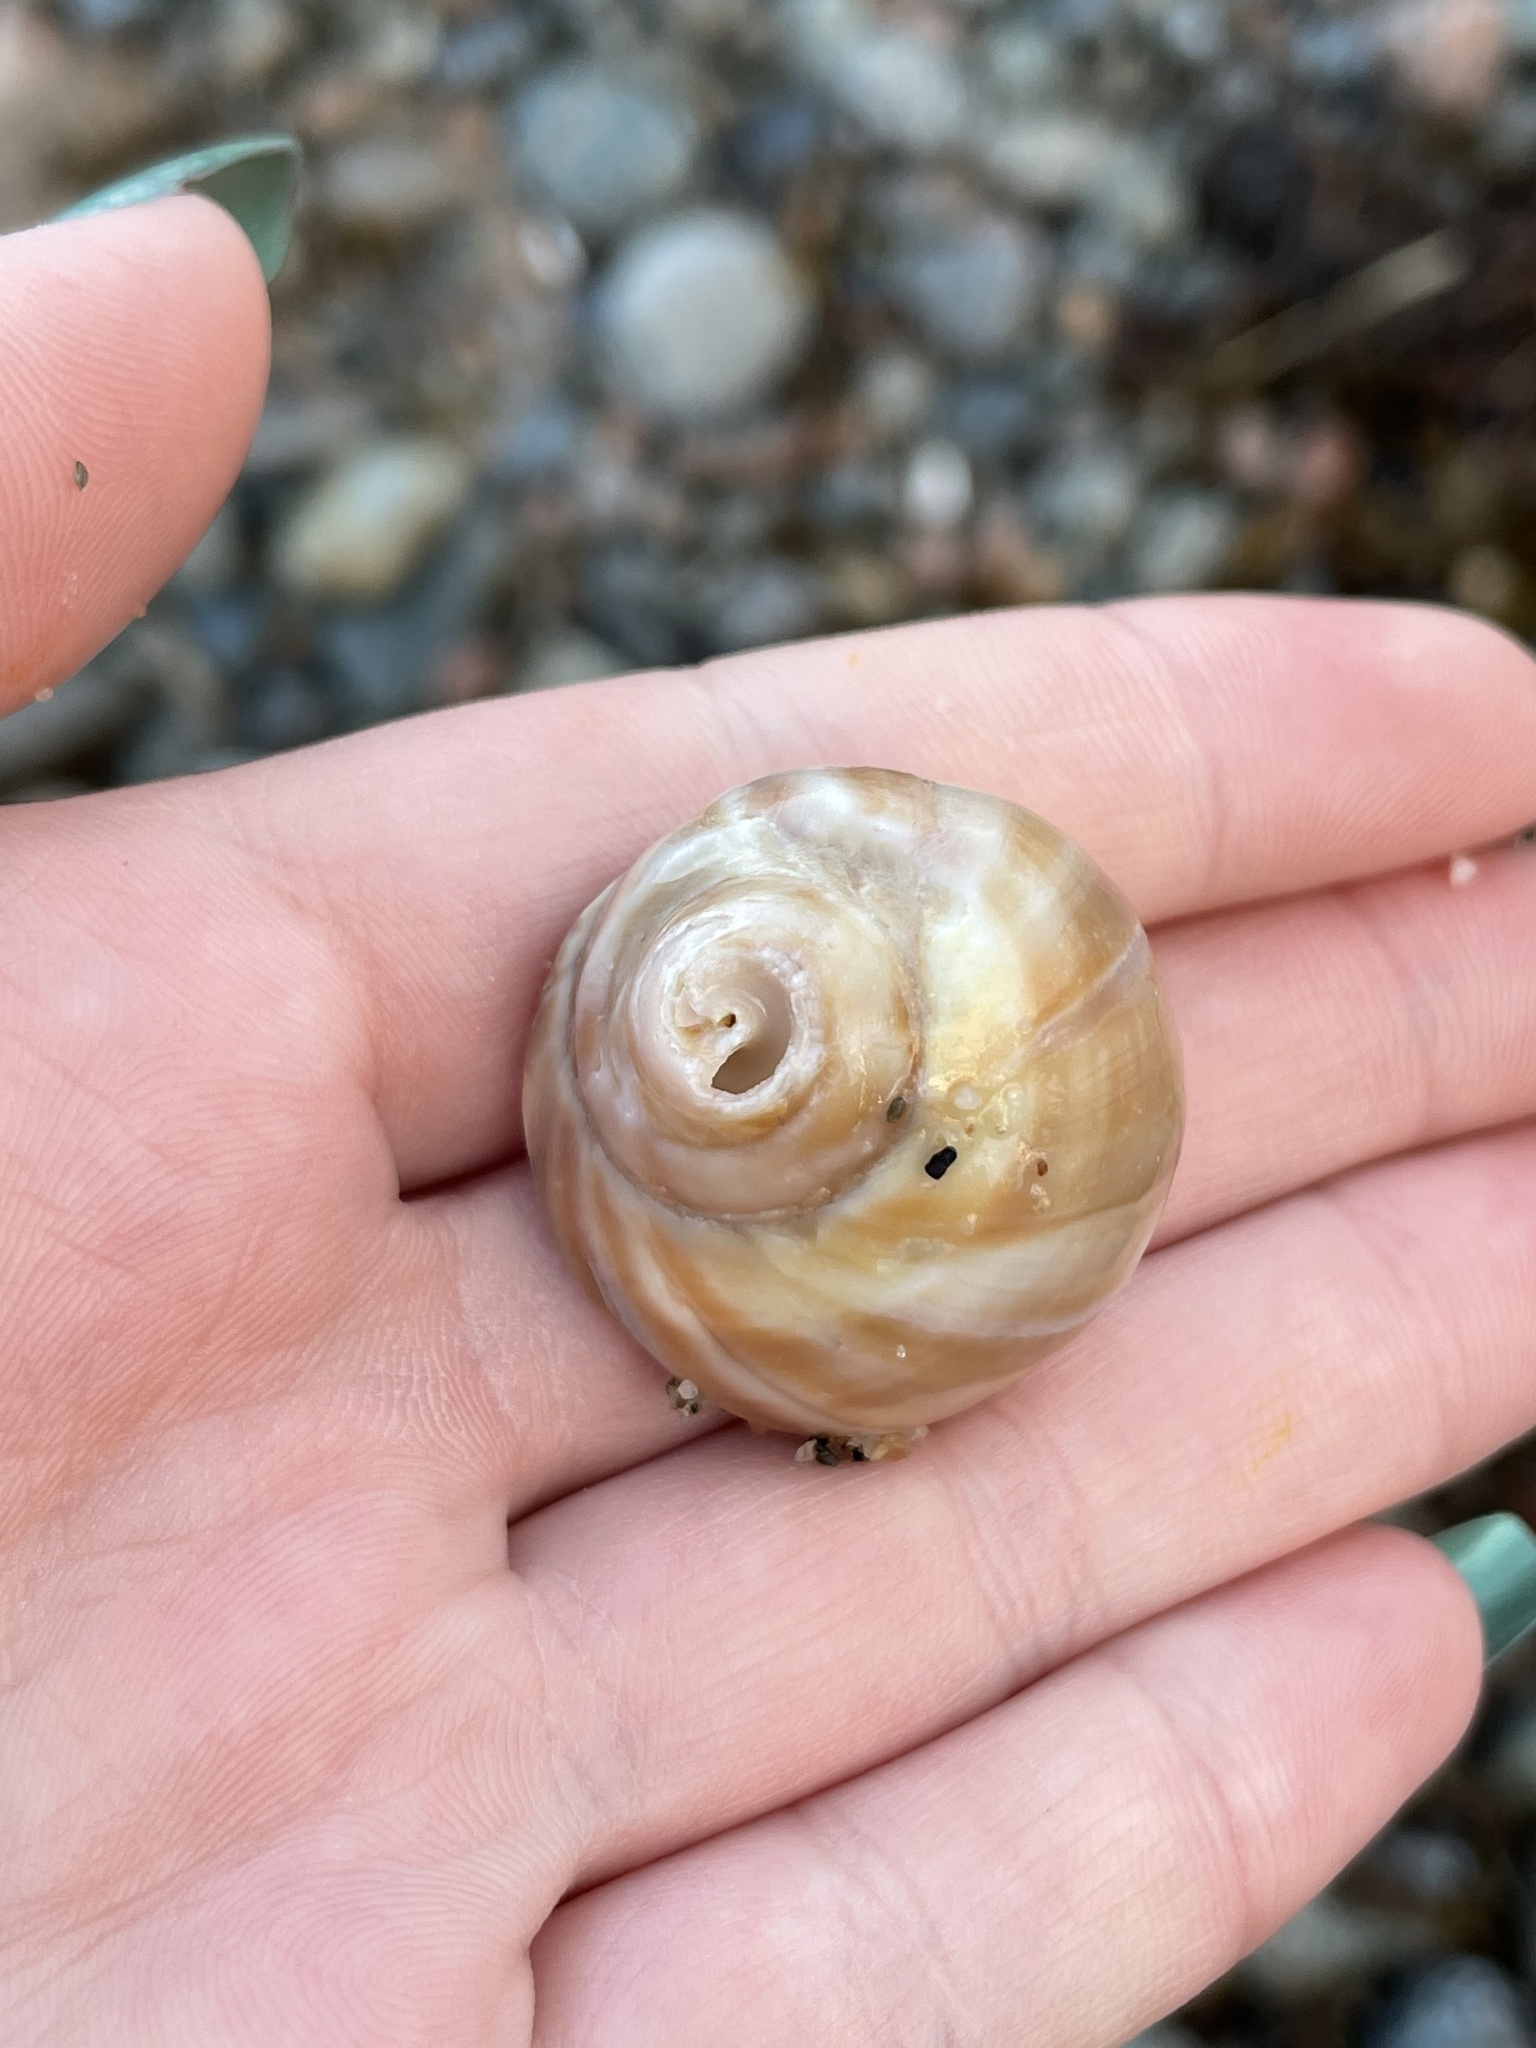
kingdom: Animalia
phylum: Mollusca
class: Gastropoda
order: Littorinimorpha
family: Naticidae
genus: Euspira
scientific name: Euspira heros
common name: Common northern moonsnail
